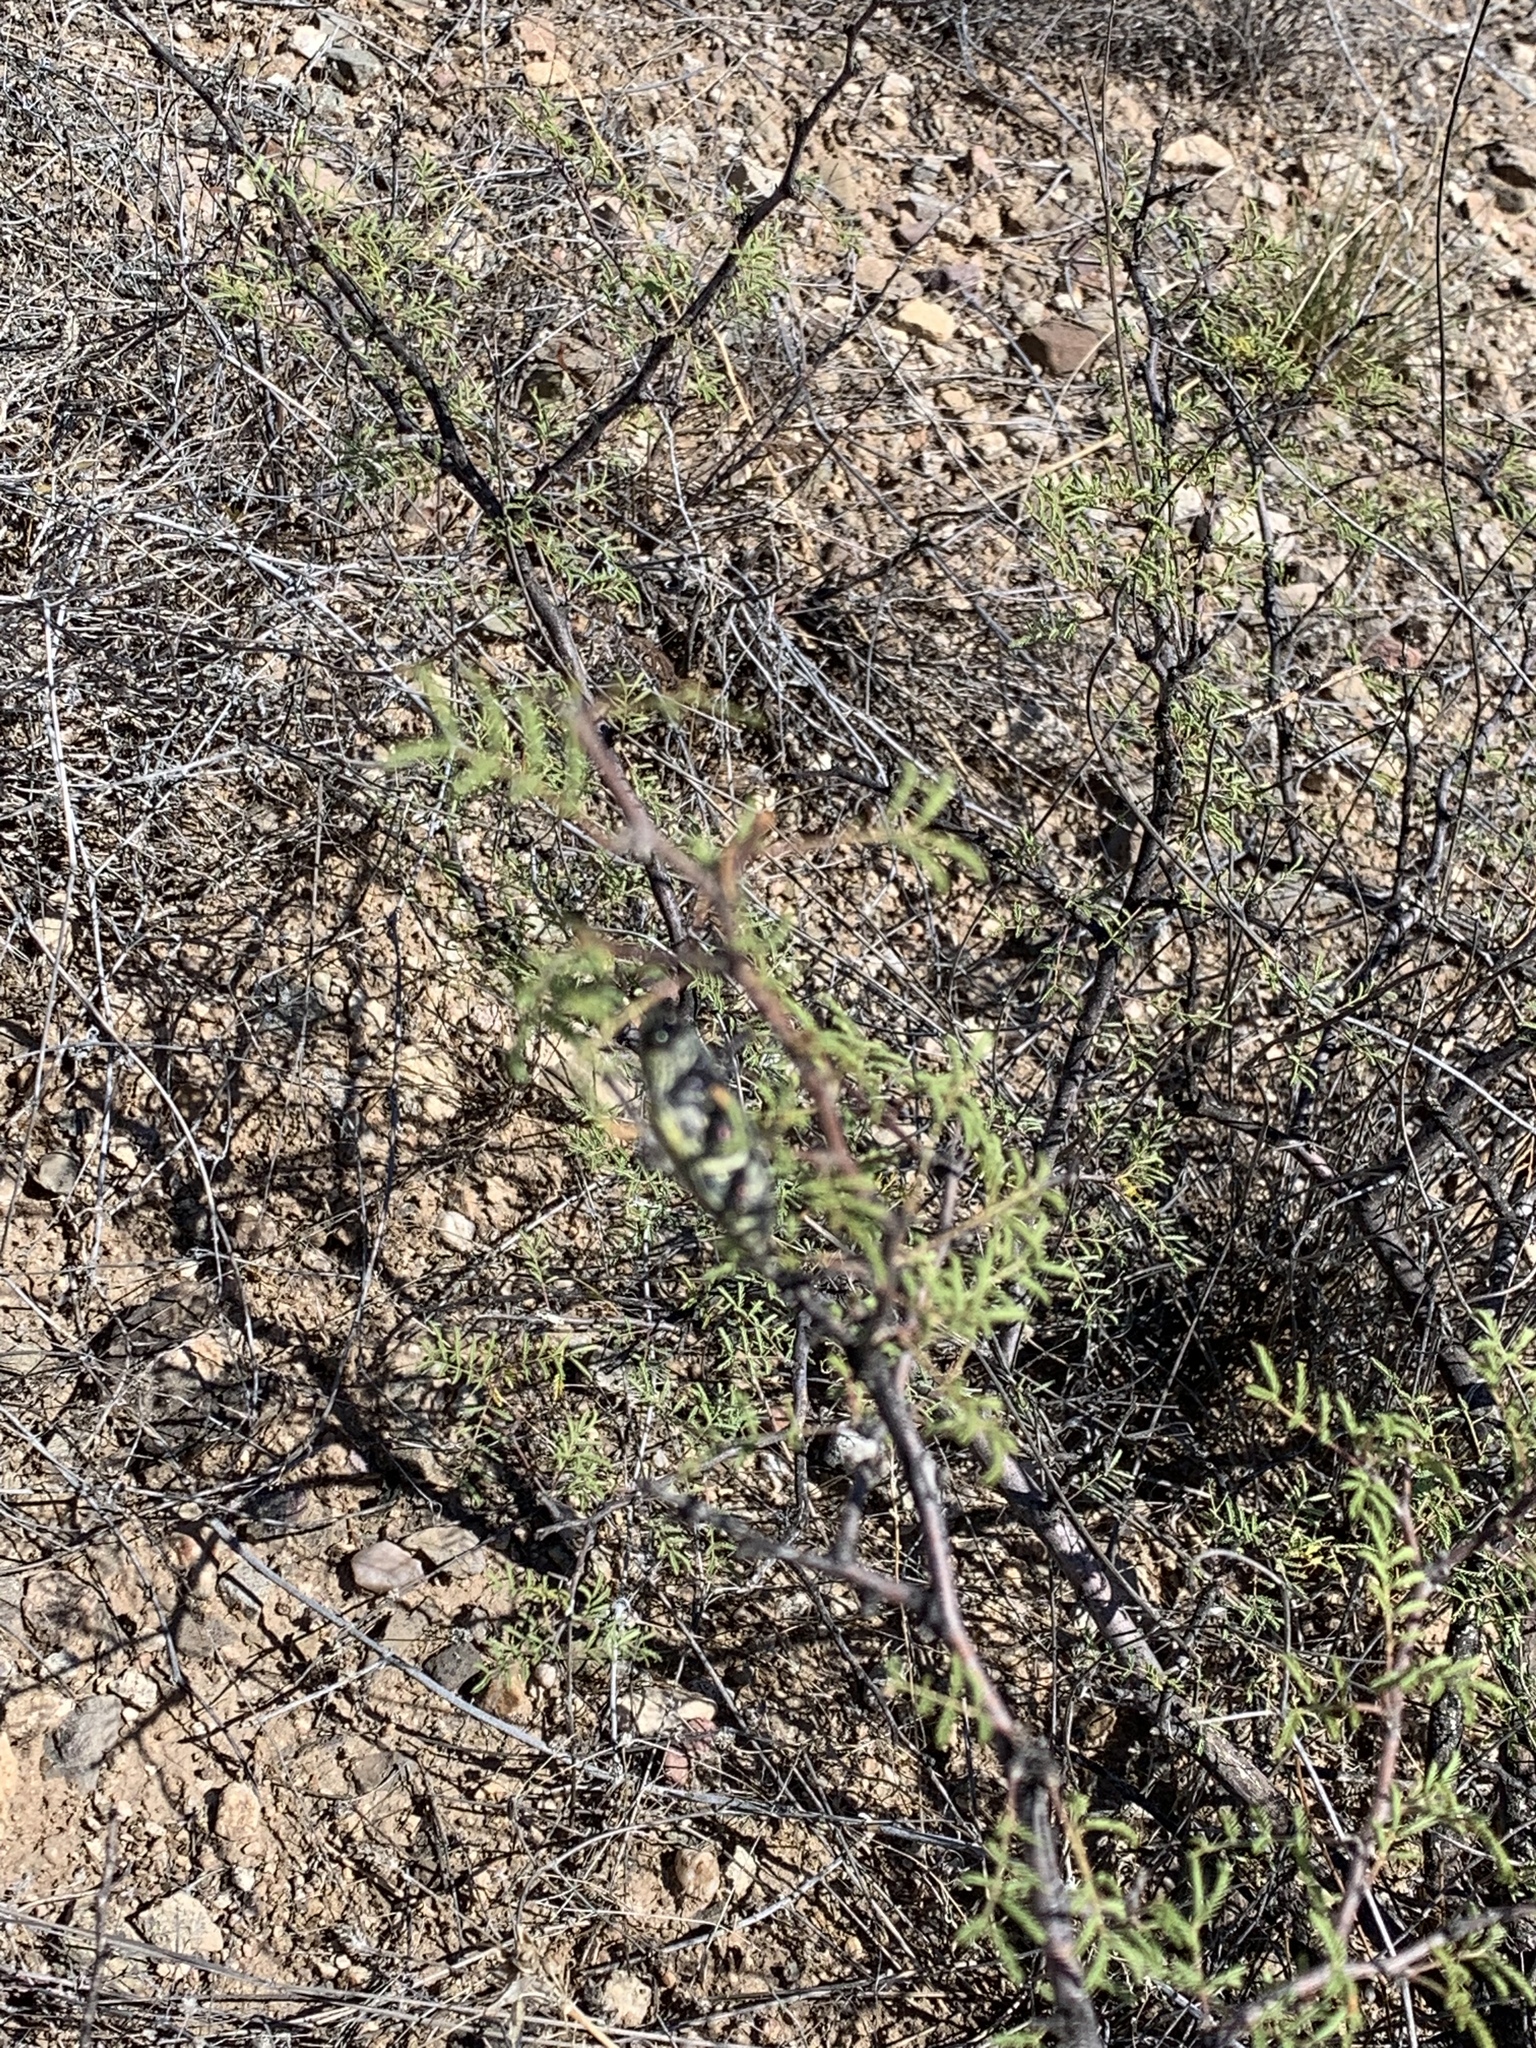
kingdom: Plantae
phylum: Tracheophyta
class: Magnoliopsida
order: Fabales
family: Fabaceae
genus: Vachellia
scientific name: Vachellia constricta
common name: Mescat acacia
